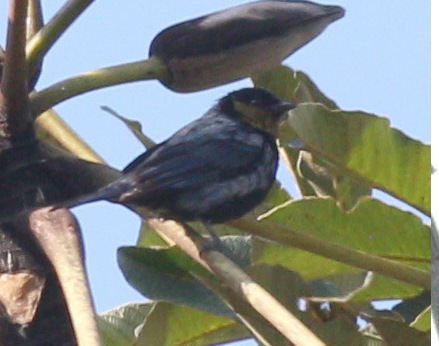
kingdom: Animalia
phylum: Chordata
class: Aves
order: Passeriformes
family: Thraupidae
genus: Stilpnia
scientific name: Stilpnia viridicollis
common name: Silver-backed tanager
